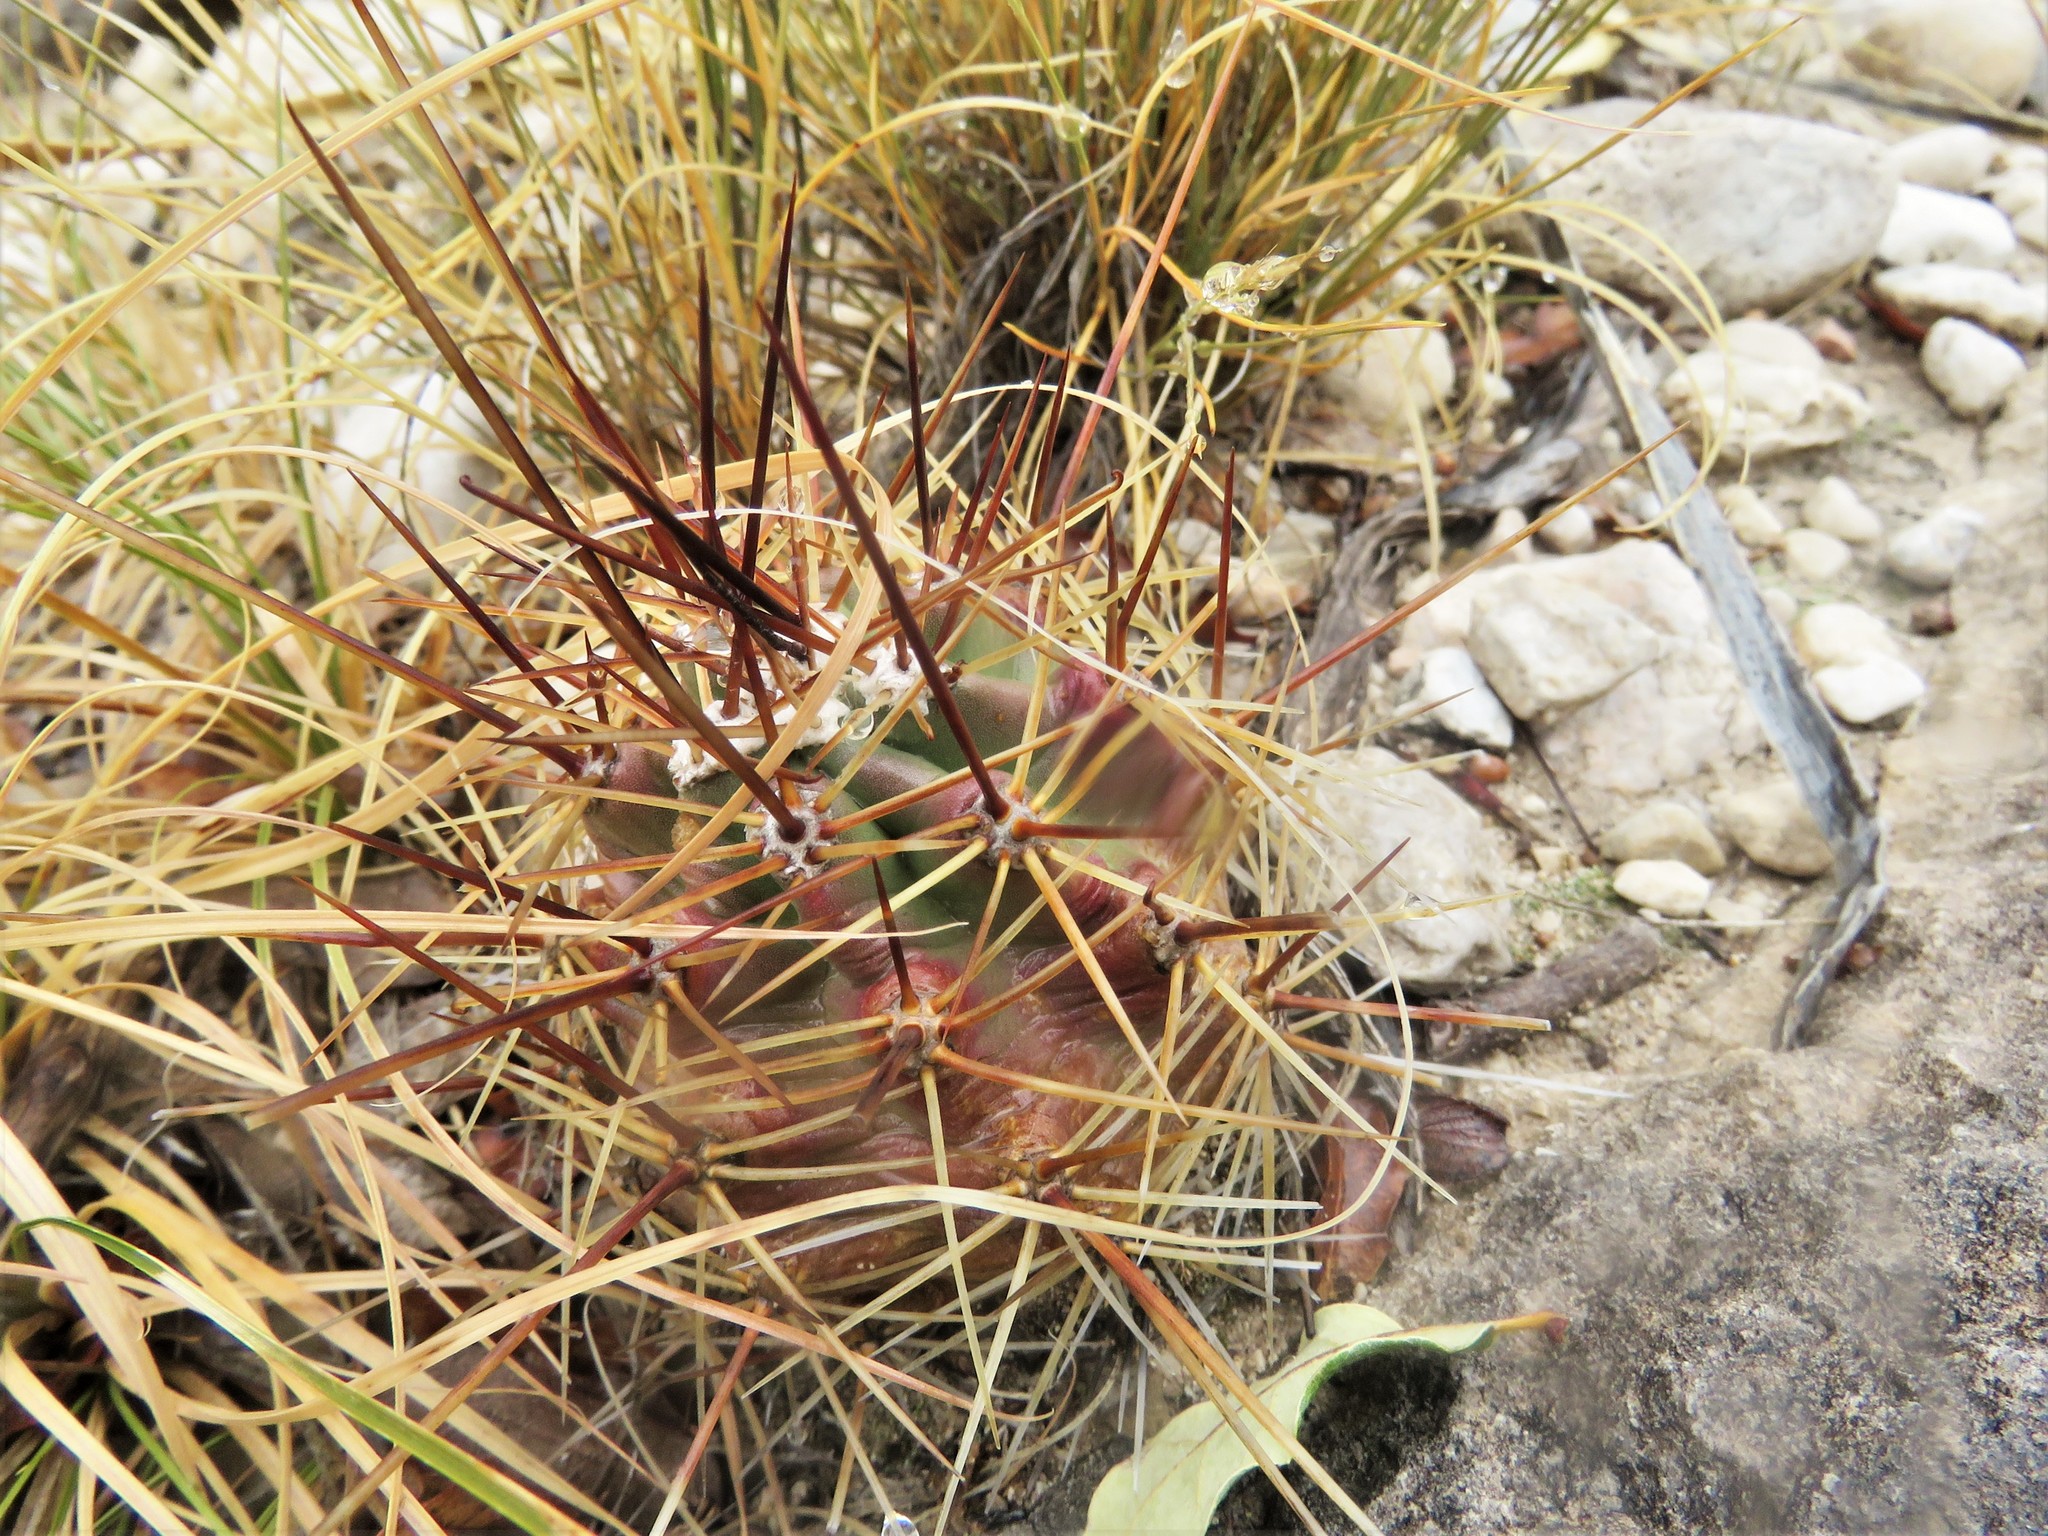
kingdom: Plantae
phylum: Tracheophyta
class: Magnoliopsida
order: Caryophyllales
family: Cactaceae
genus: Echinocereus
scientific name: Echinocereus coccineus
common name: Scarlet hedgehog cactus
